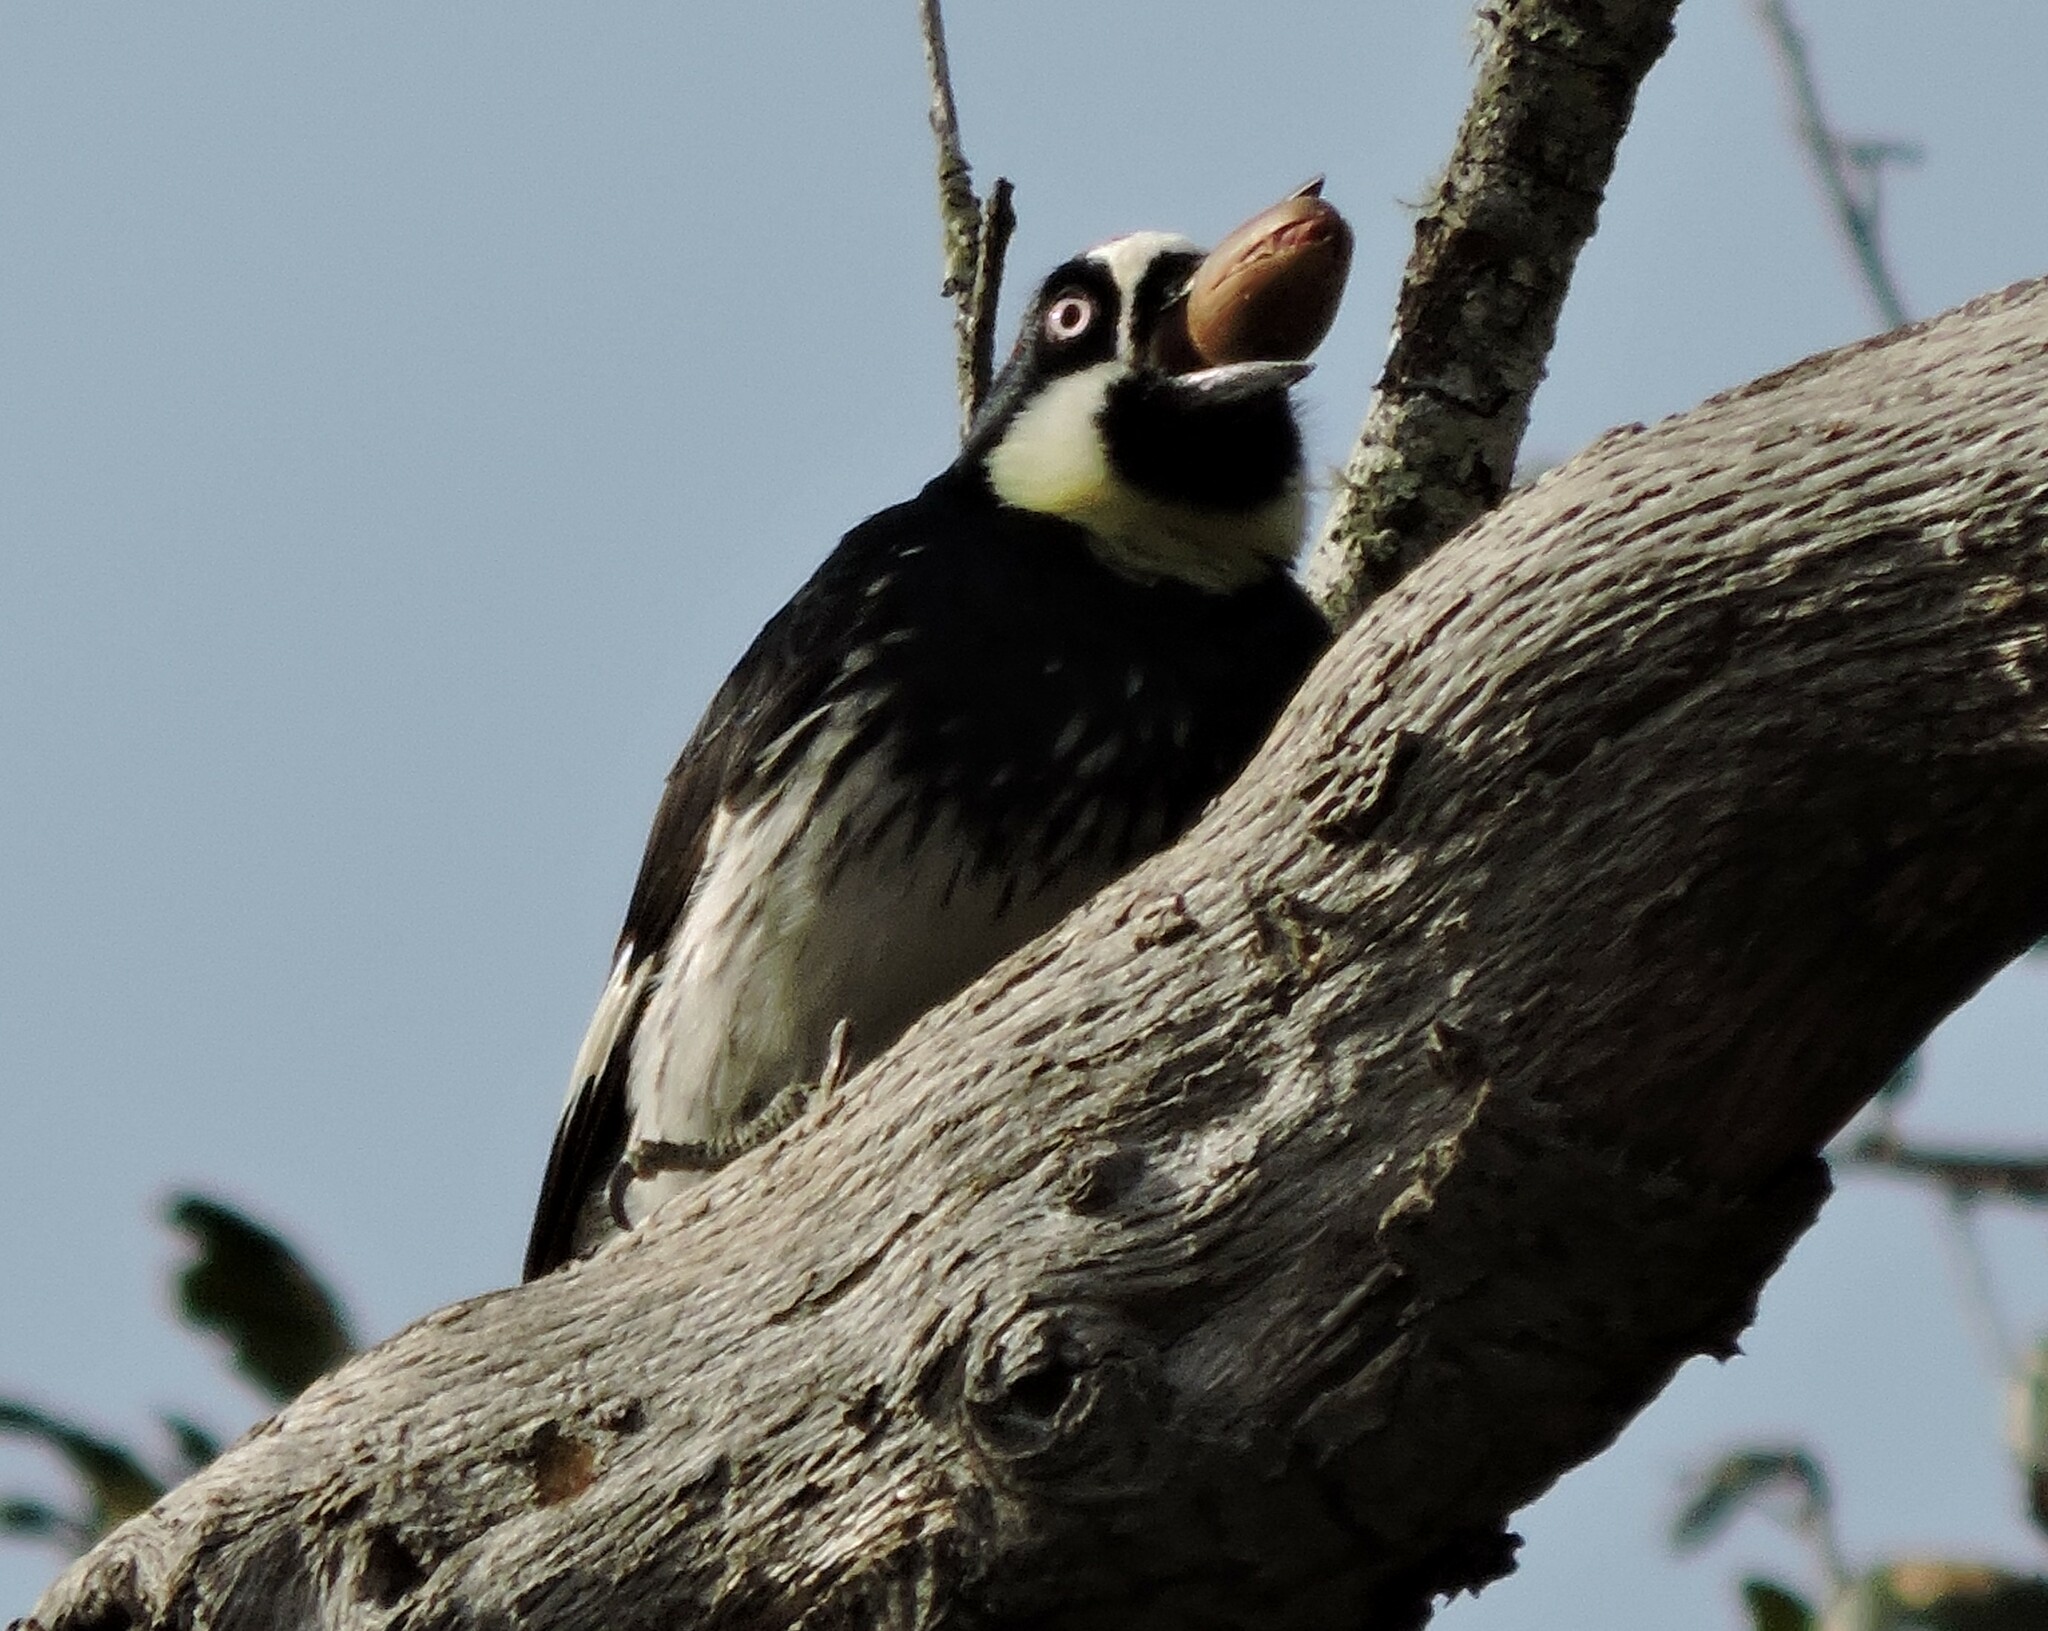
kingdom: Animalia
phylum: Chordata
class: Aves
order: Piciformes
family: Picidae
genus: Melanerpes
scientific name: Melanerpes formicivorus
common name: Acorn woodpecker
